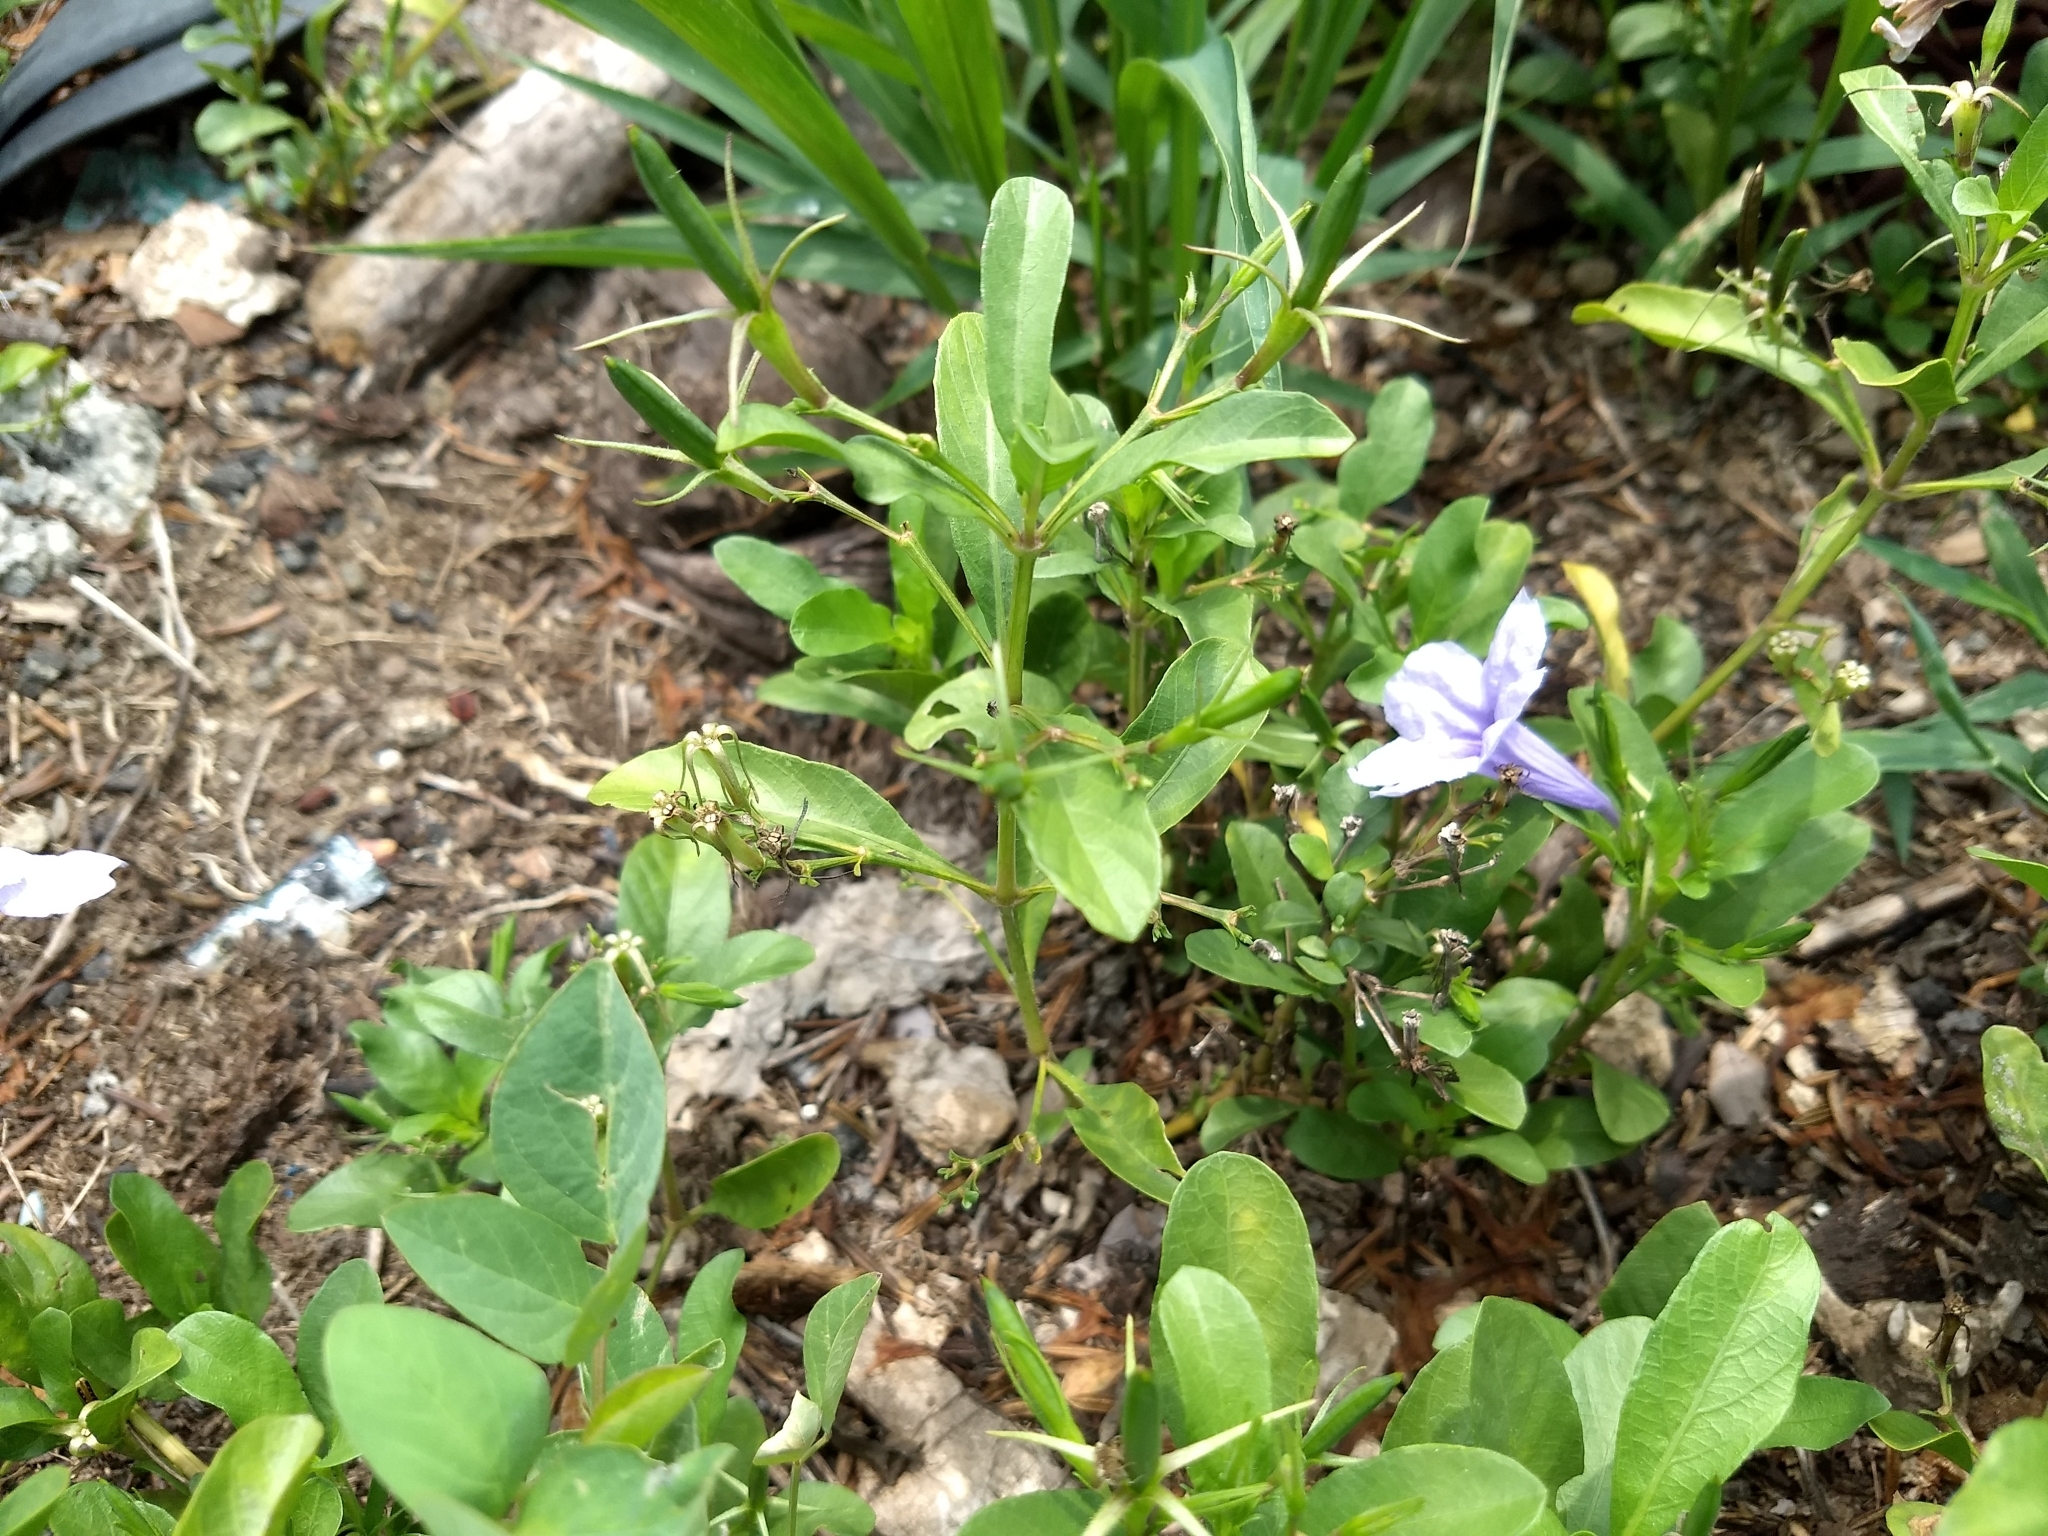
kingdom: Plantae
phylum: Tracheophyta
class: Magnoliopsida
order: Lamiales
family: Acanthaceae
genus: Ruellia
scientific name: Ruellia tuberosa
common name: Devil's bit
